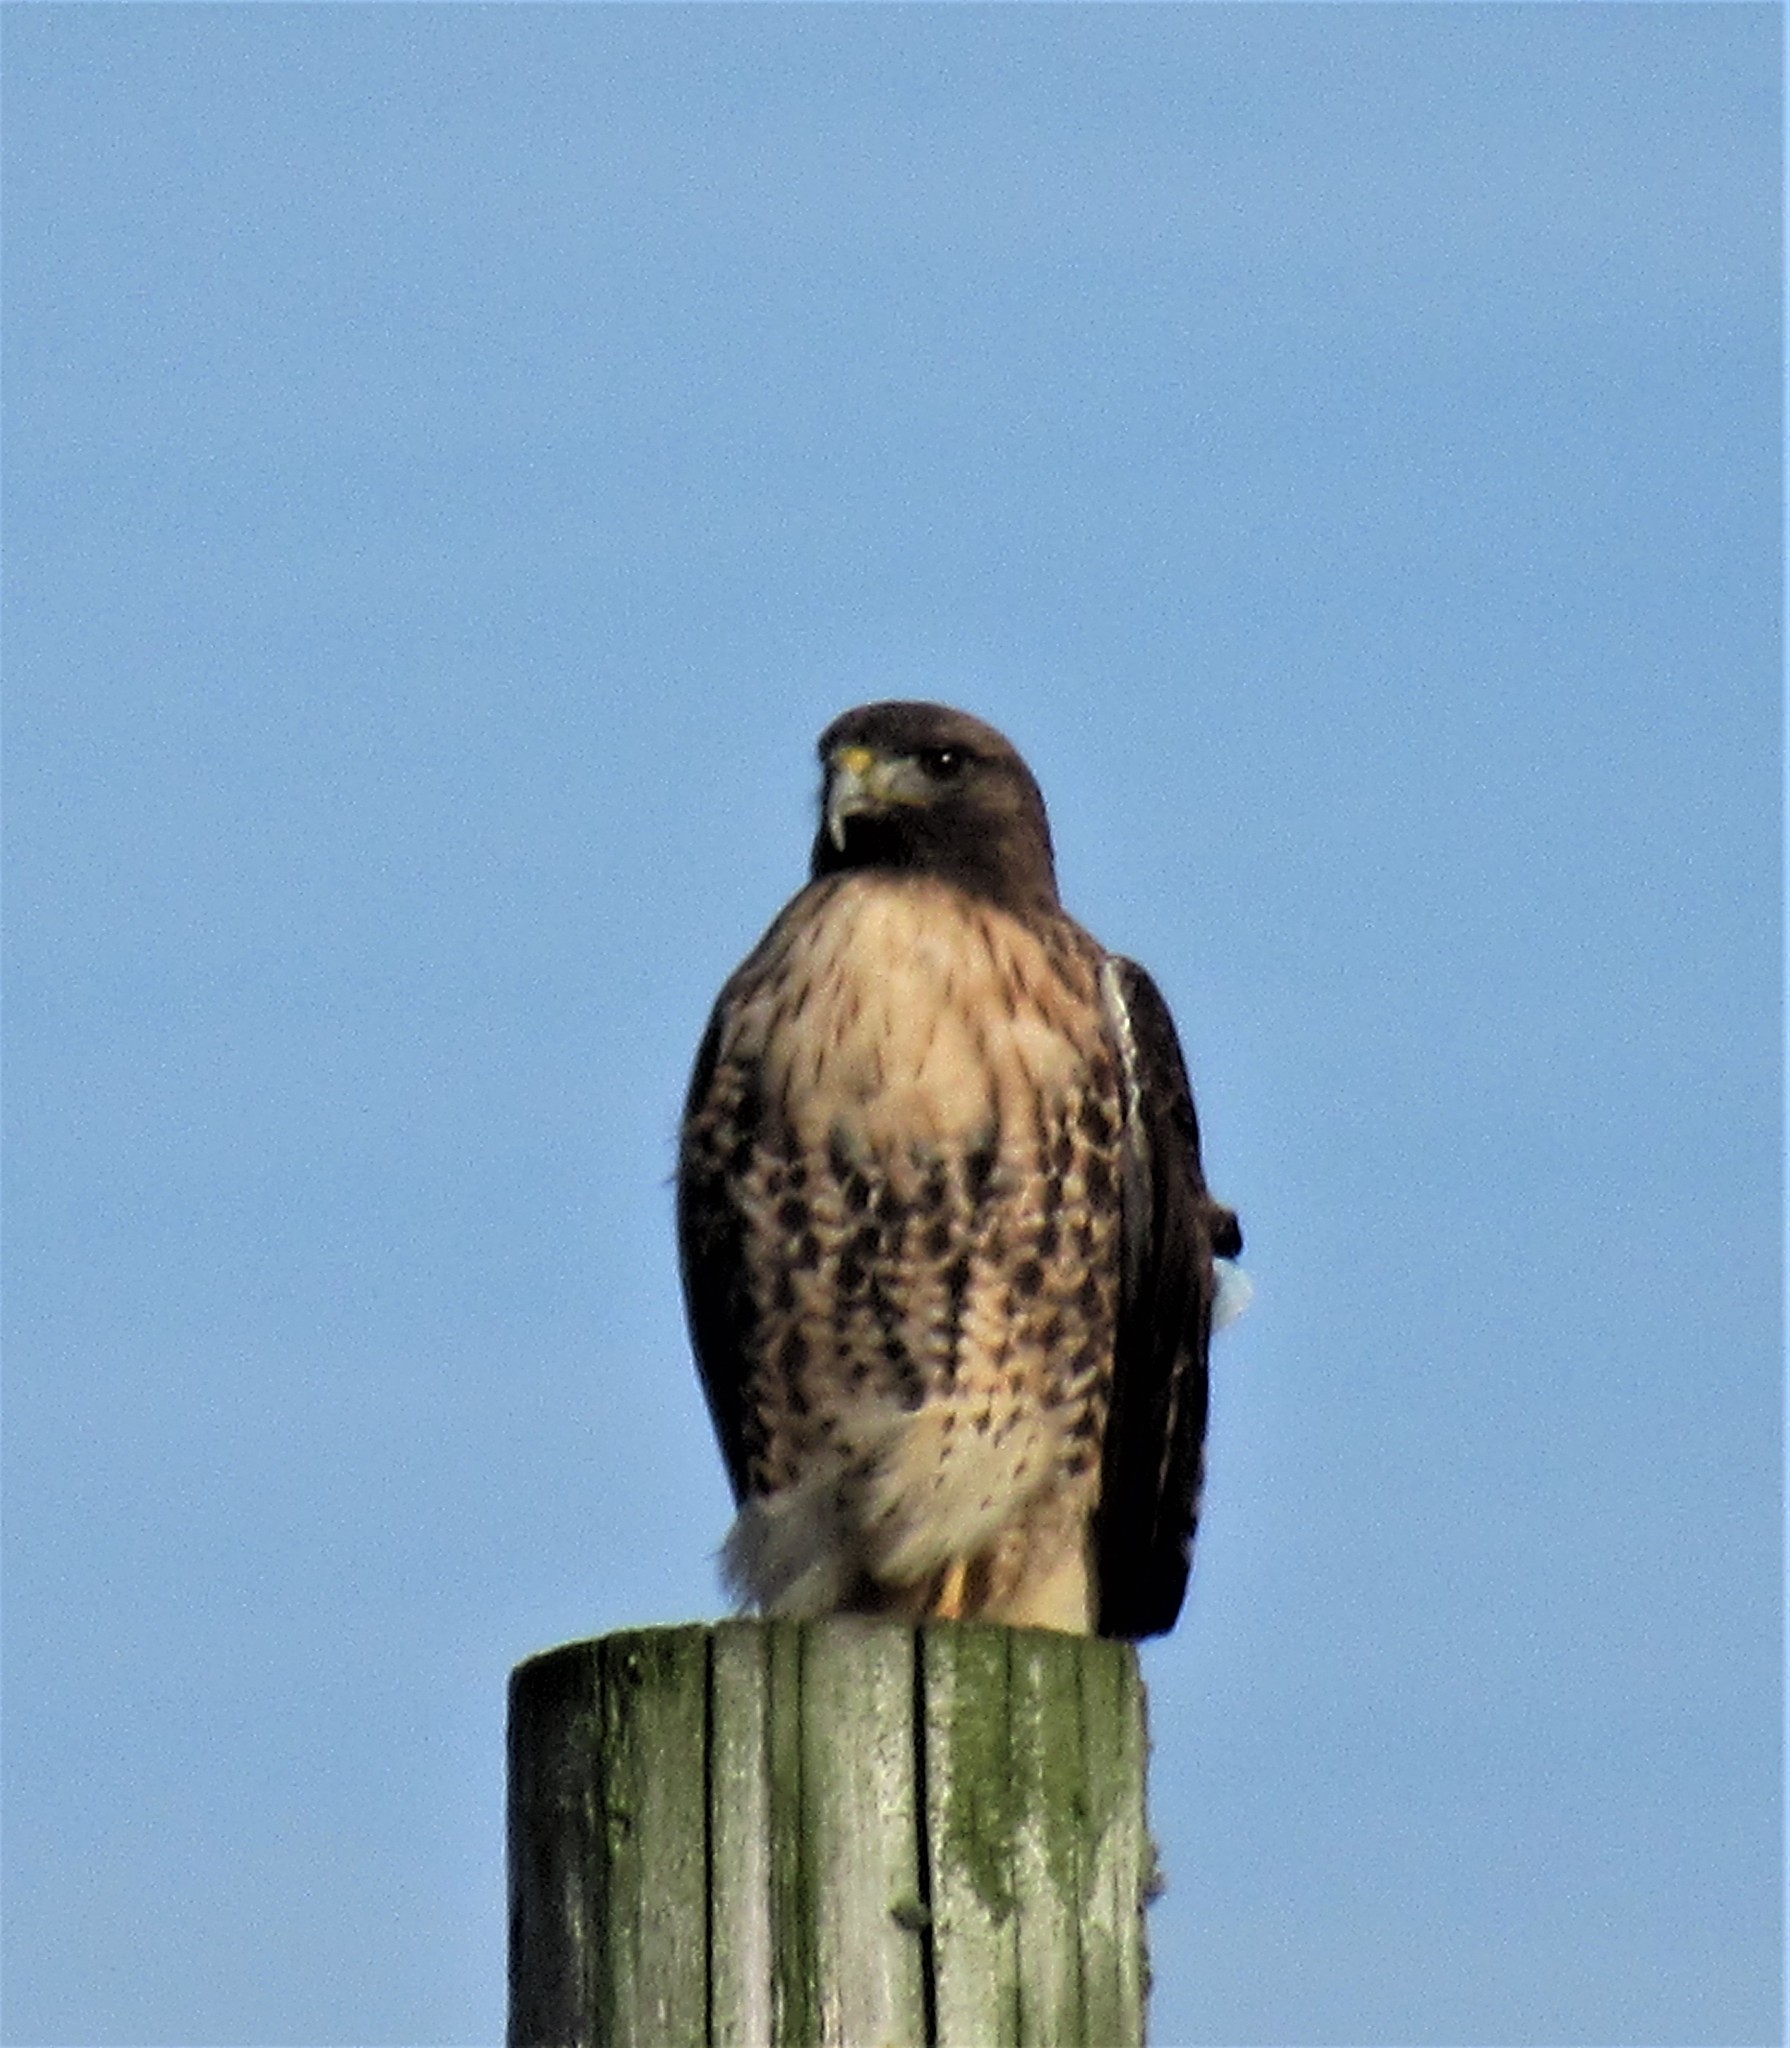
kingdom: Animalia
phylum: Chordata
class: Aves
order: Accipitriformes
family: Accipitridae
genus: Buteo
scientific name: Buteo jamaicensis
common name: Red-tailed hawk
